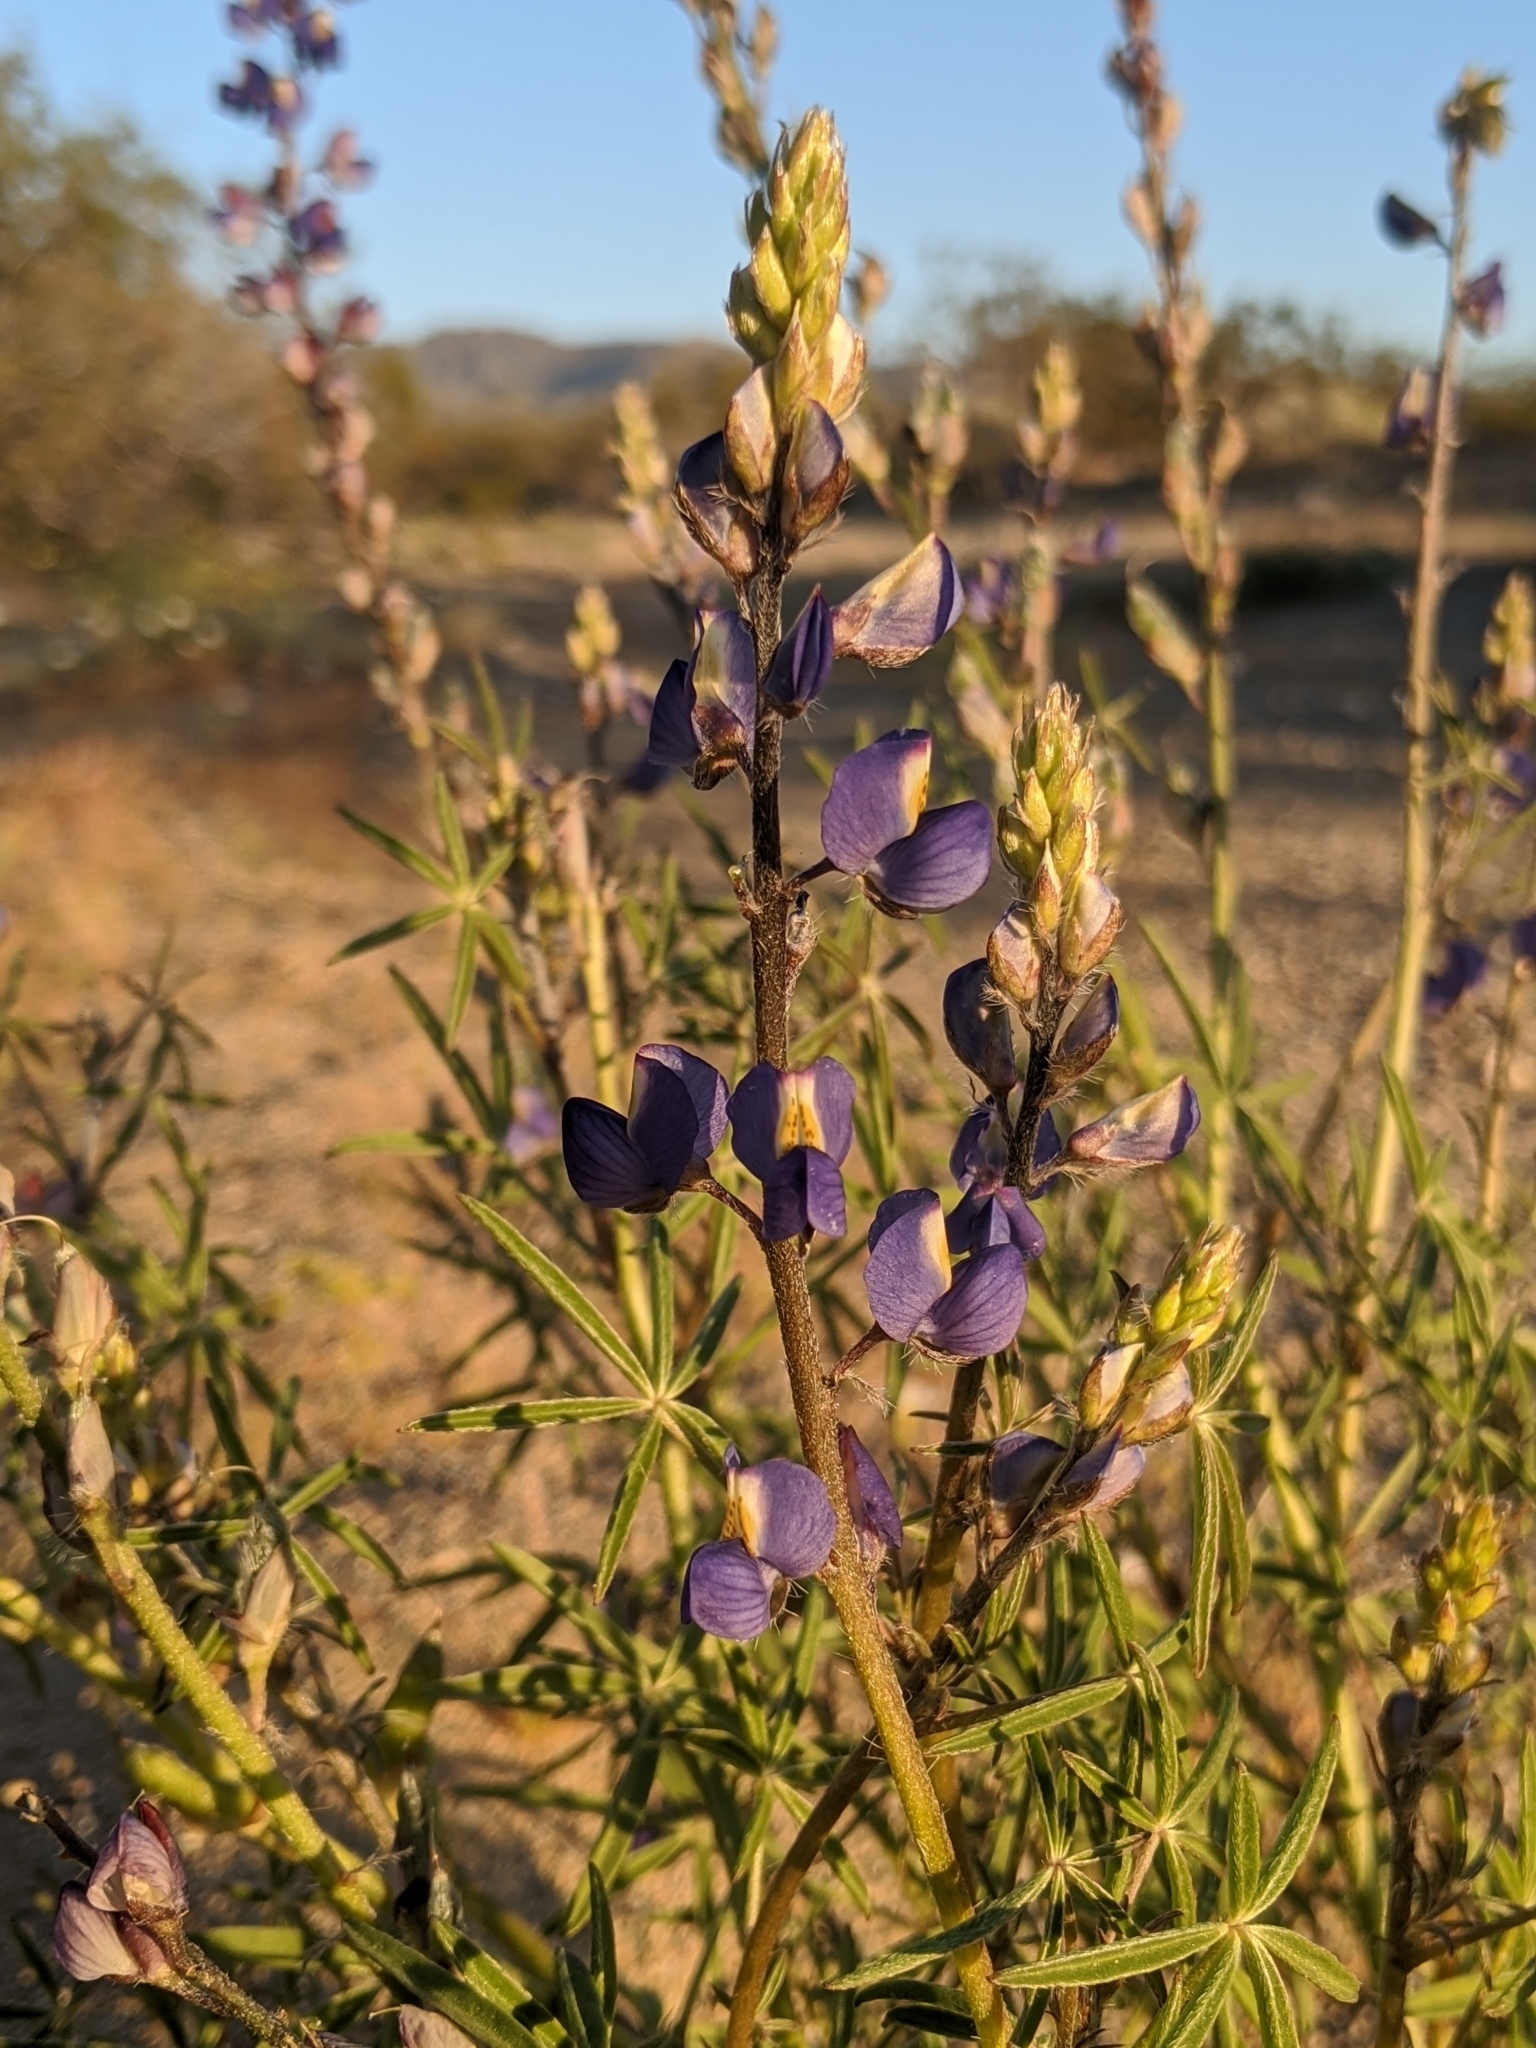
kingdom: Plantae
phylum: Tracheophyta
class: Magnoliopsida
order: Fabales
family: Fabaceae
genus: Lupinus
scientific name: Lupinus sparsiflorus
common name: Coulter's lupine
